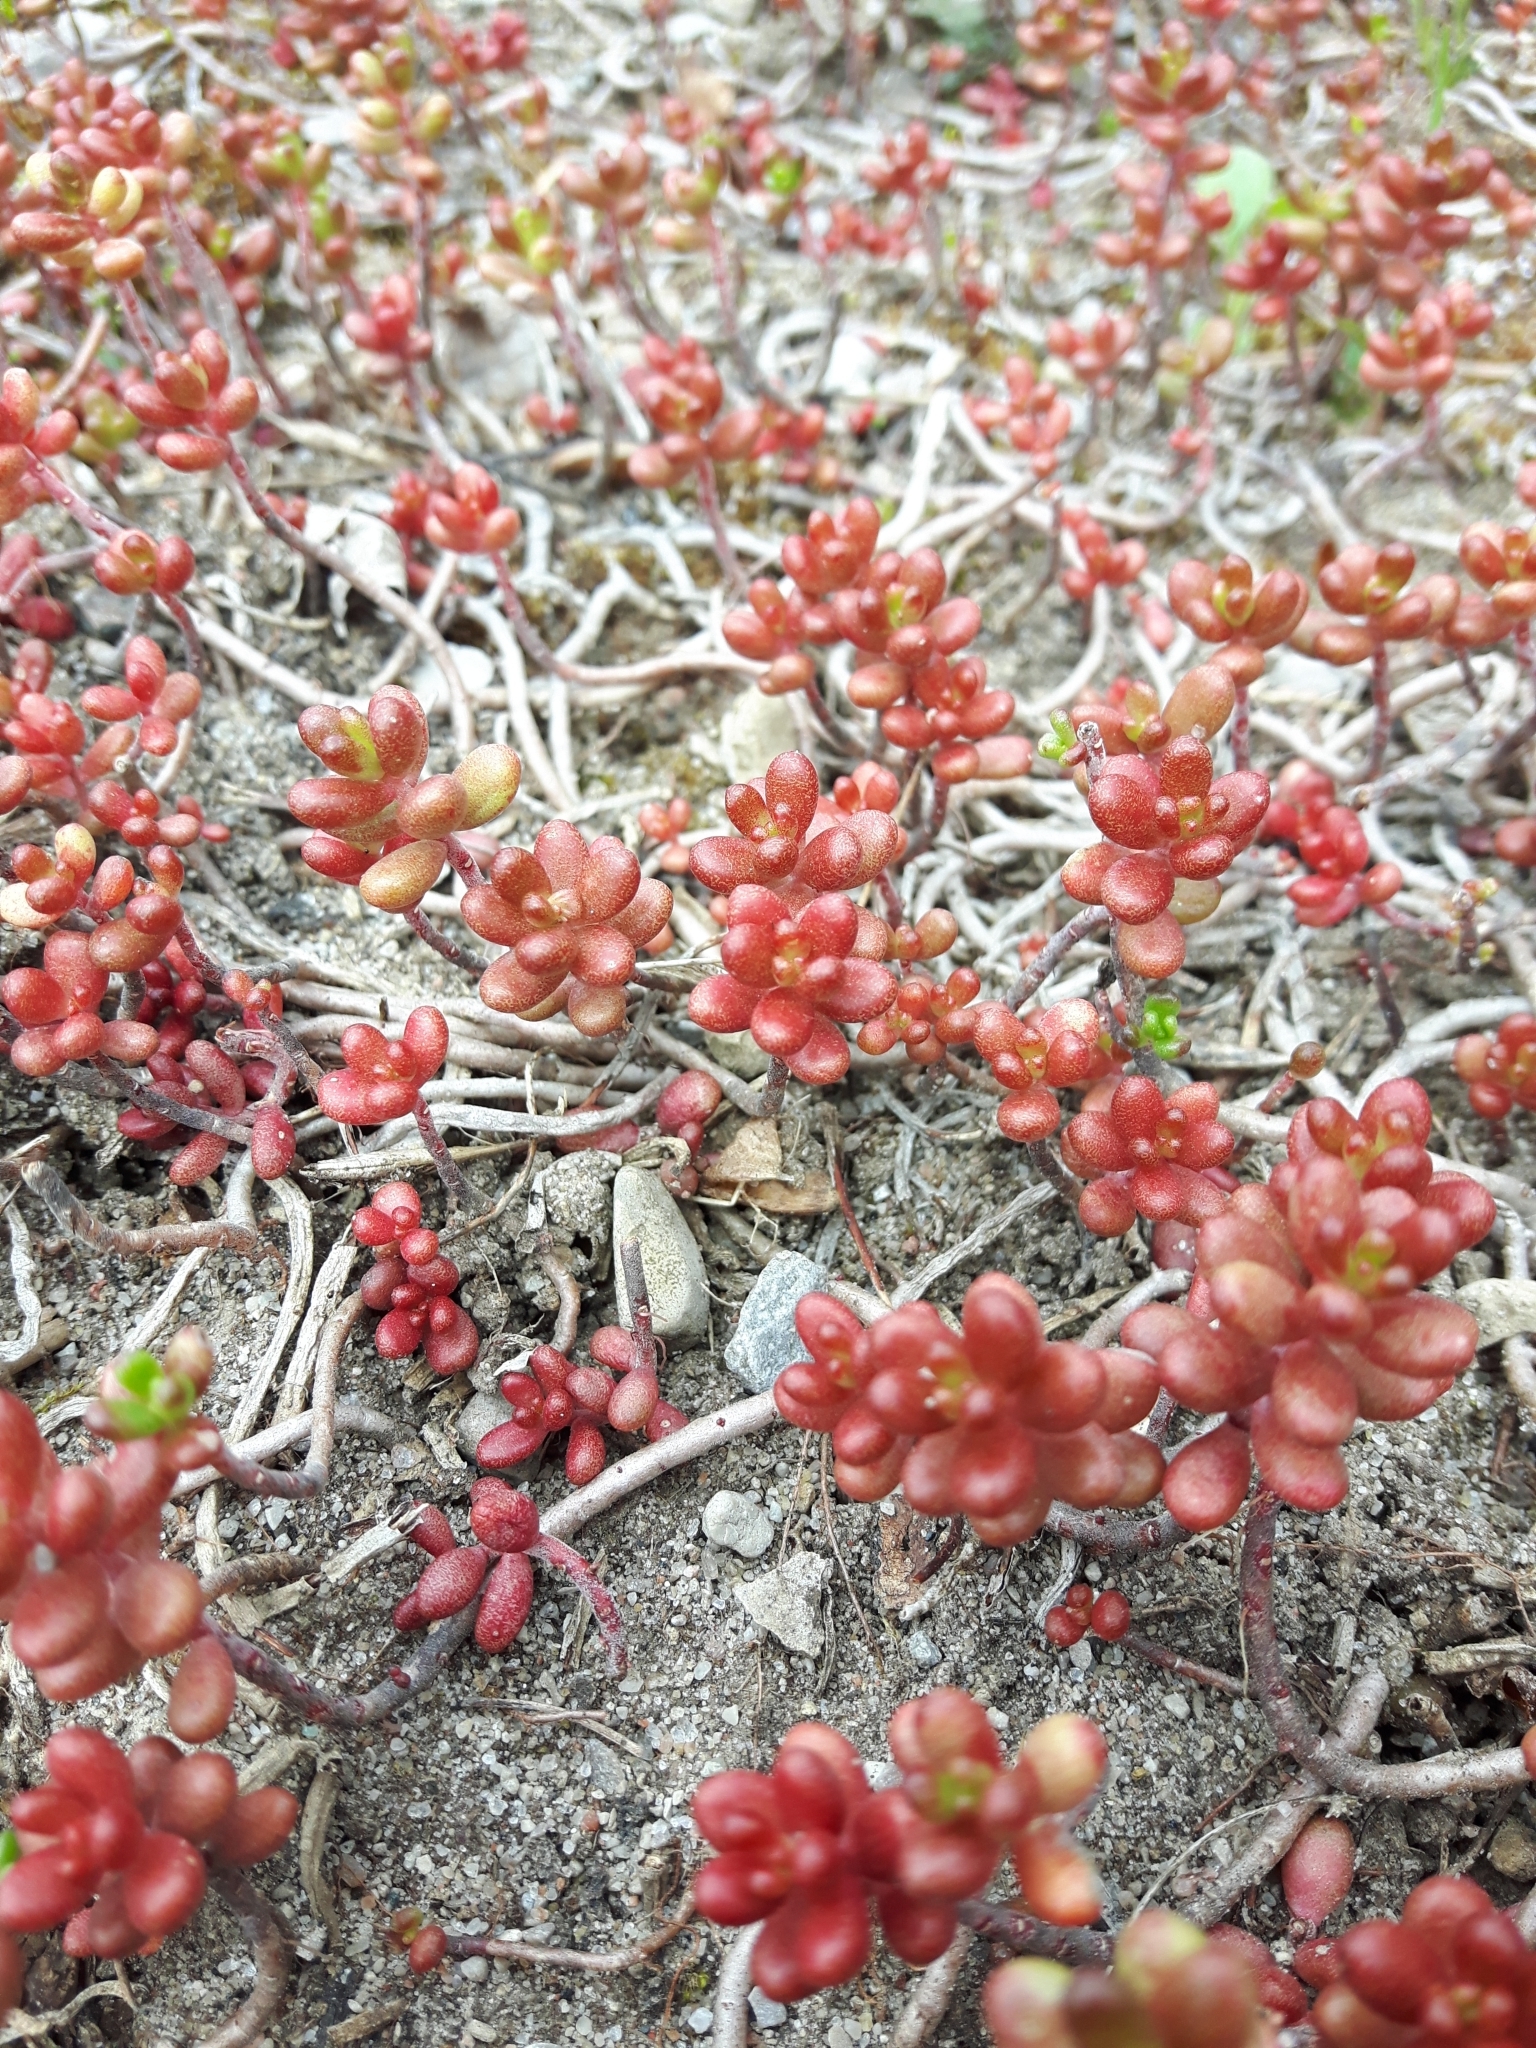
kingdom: Plantae
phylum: Tracheophyta
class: Magnoliopsida
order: Saxifragales
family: Crassulaceae
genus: Sedum
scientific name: Sedum album
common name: White stonecrop
